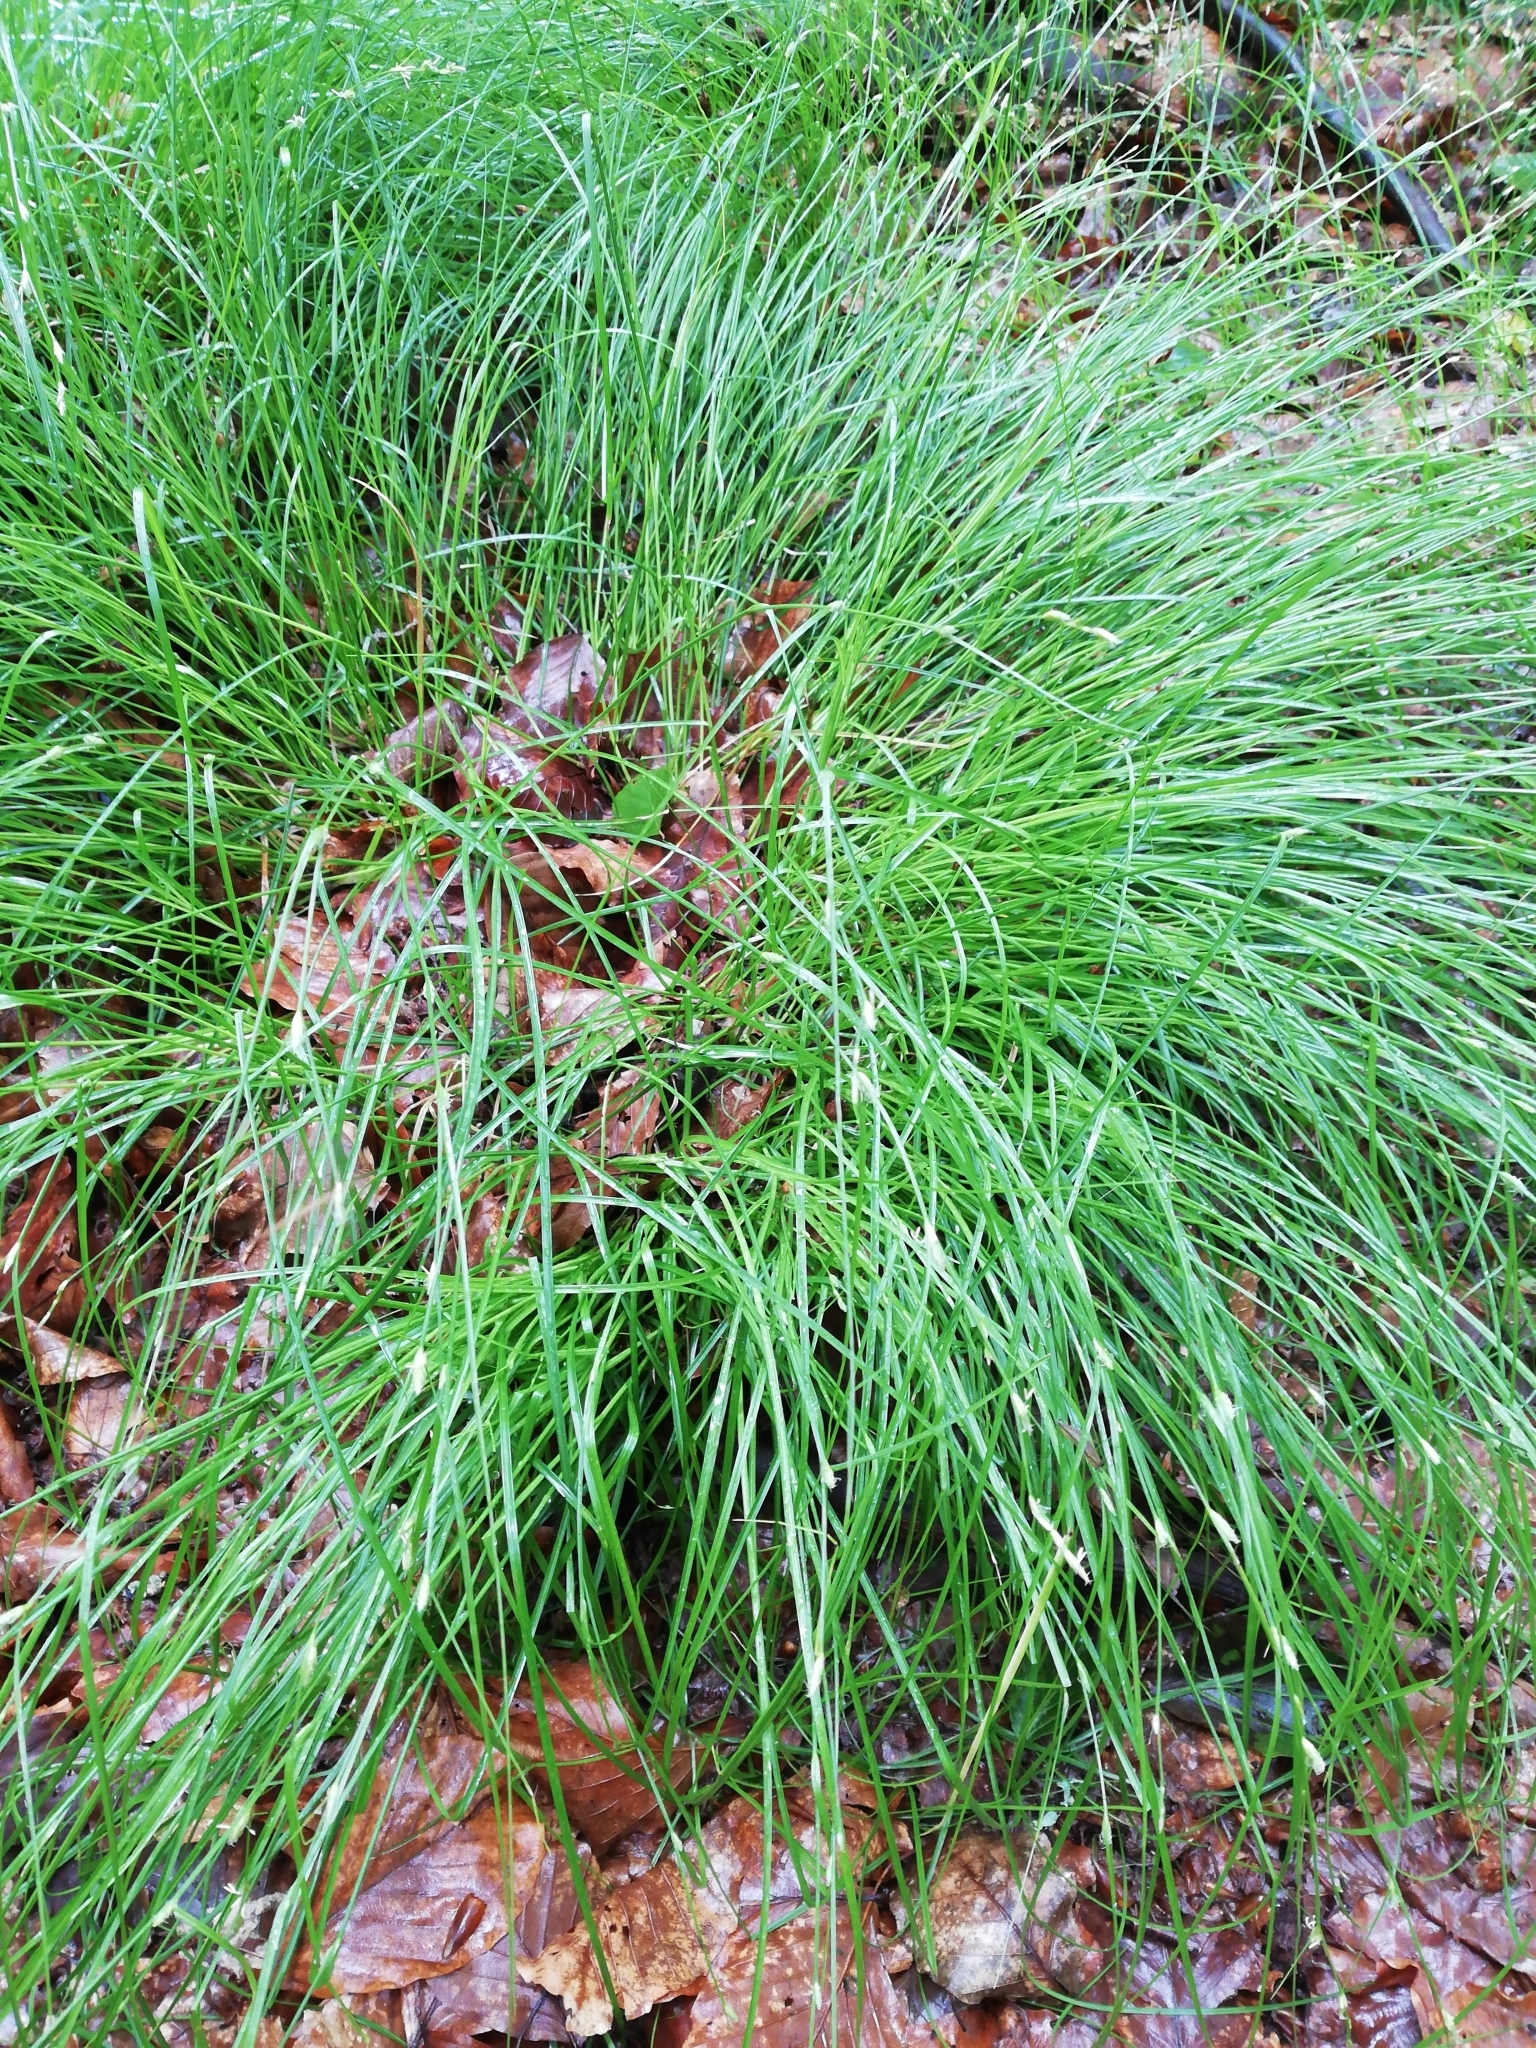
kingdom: Plantae
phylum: Tracheophyta
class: Liliopsida
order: Poales
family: Cyperaceae
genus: Carex
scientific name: Carex remota
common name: Remote sedge
